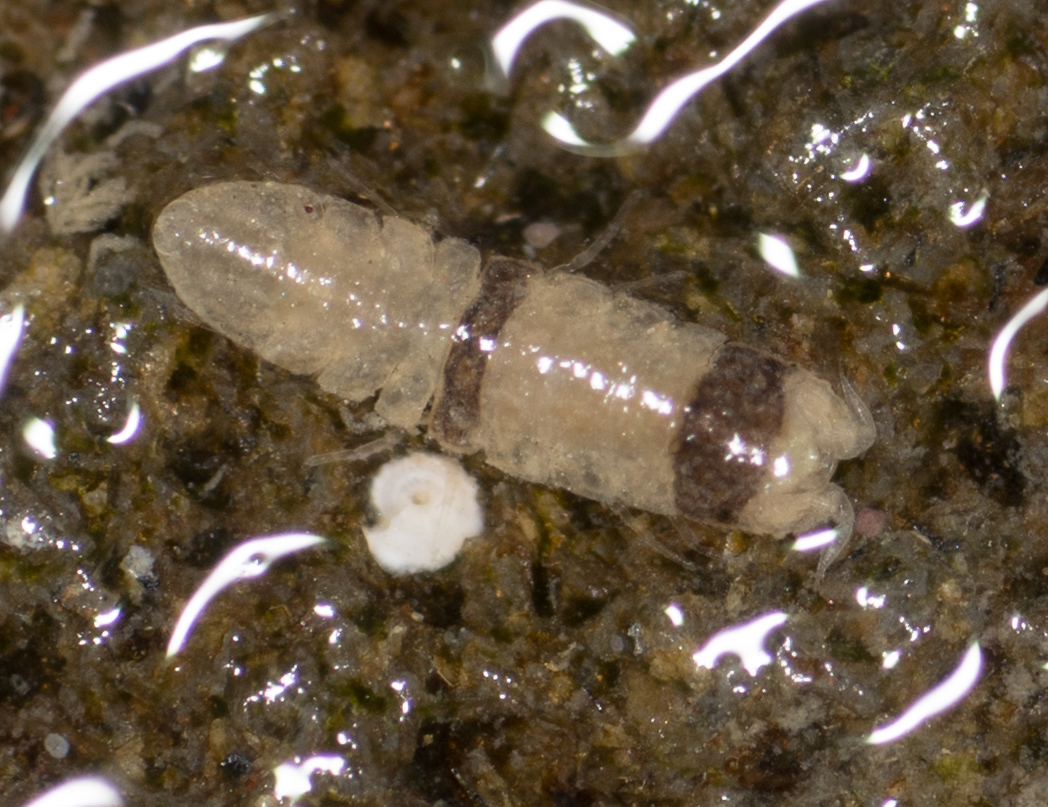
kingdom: Animalia
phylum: Arthropoda
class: Malacostraca
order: Isopoda
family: Joeropsididae
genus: Joeropsis
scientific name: Joeropsis dubia
